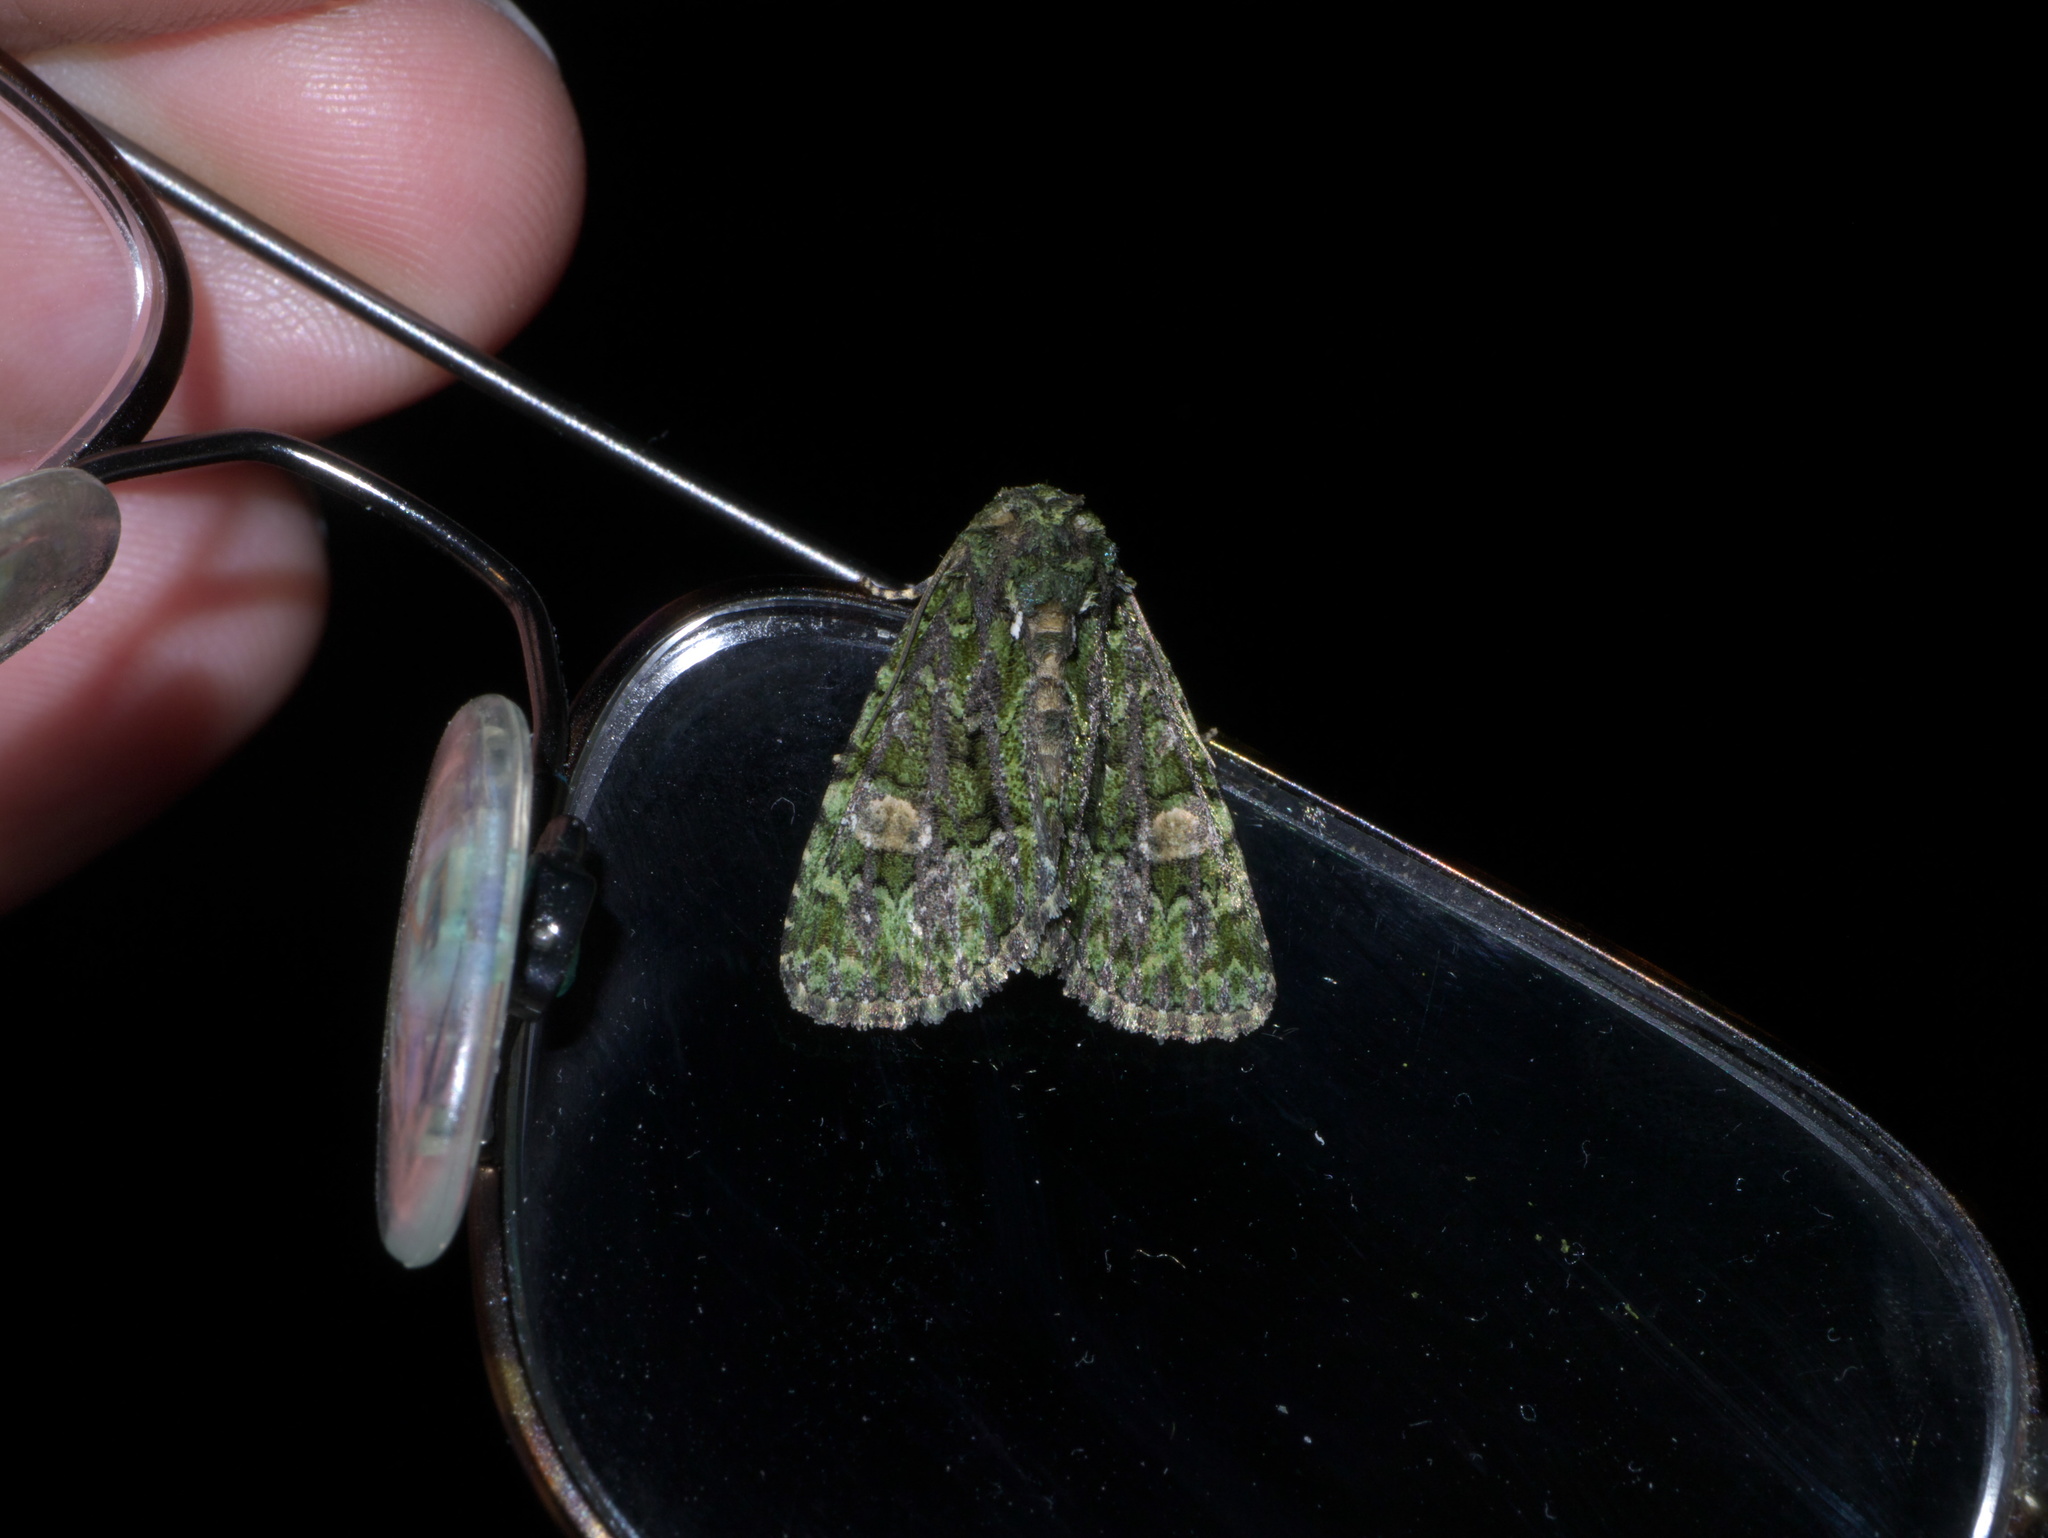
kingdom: Animalia
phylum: Arthropoda
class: Insecta
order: Lepidoptera
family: Noctuidae
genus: Phosphila
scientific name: Phosphila miselioides
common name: Spotted phosphila moth
